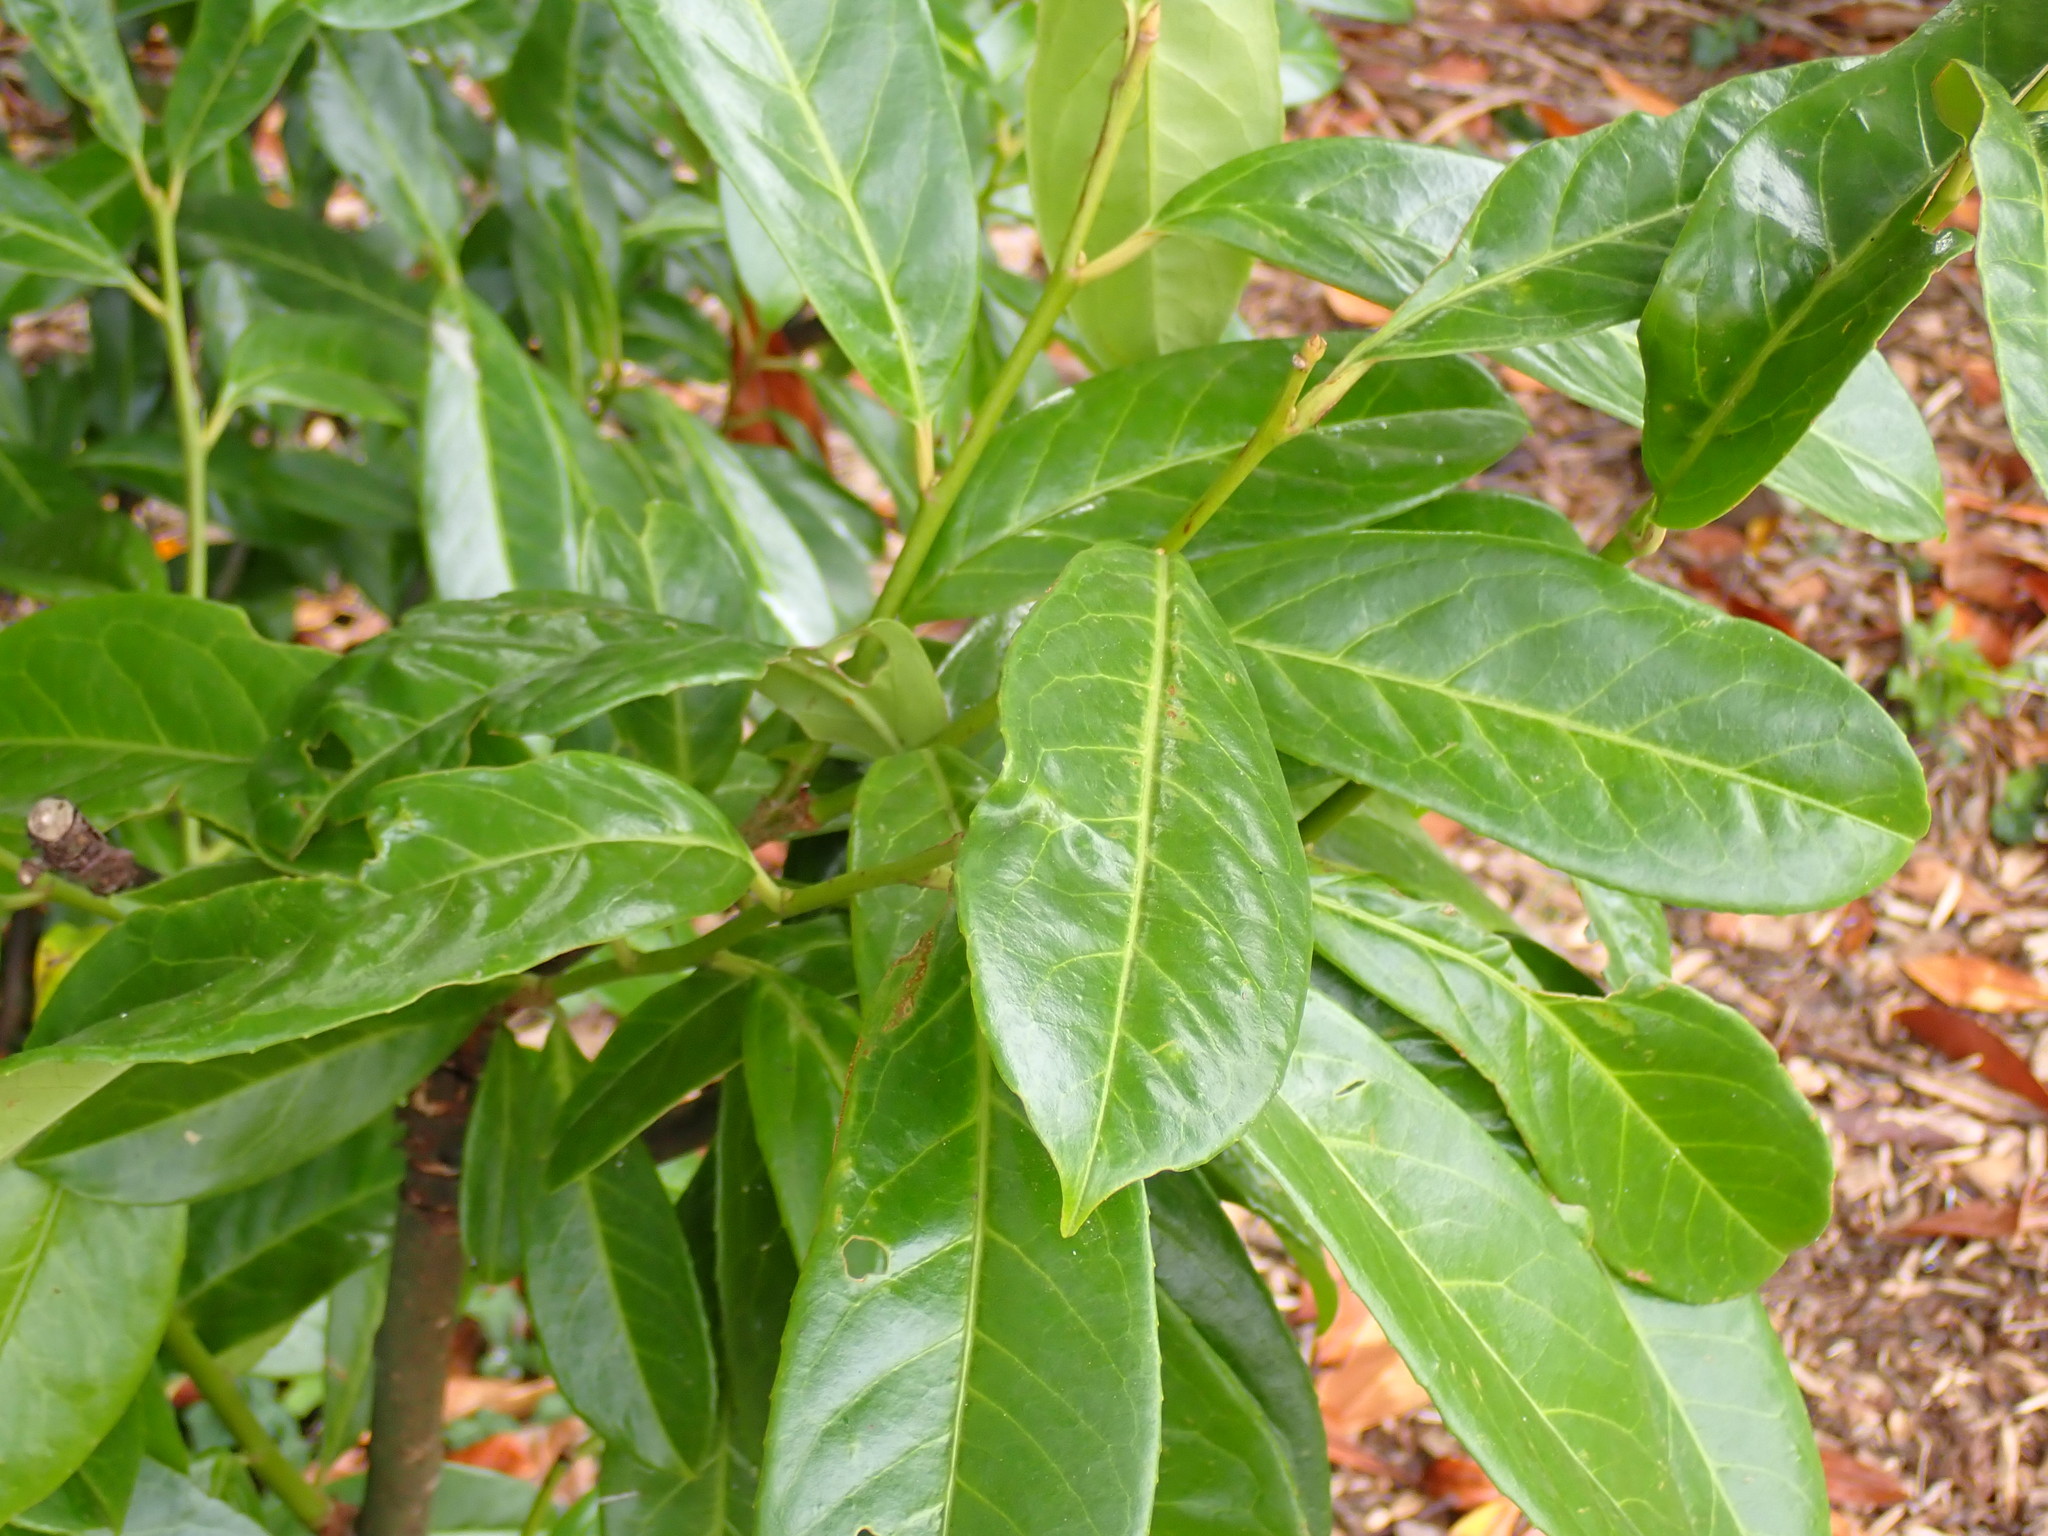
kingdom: Plantae
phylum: Tracheophyta
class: Magnoliopsida
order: Rosales
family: Rosaceae
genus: Prunus
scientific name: Prunus laurocerasus
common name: Cherry laurel
